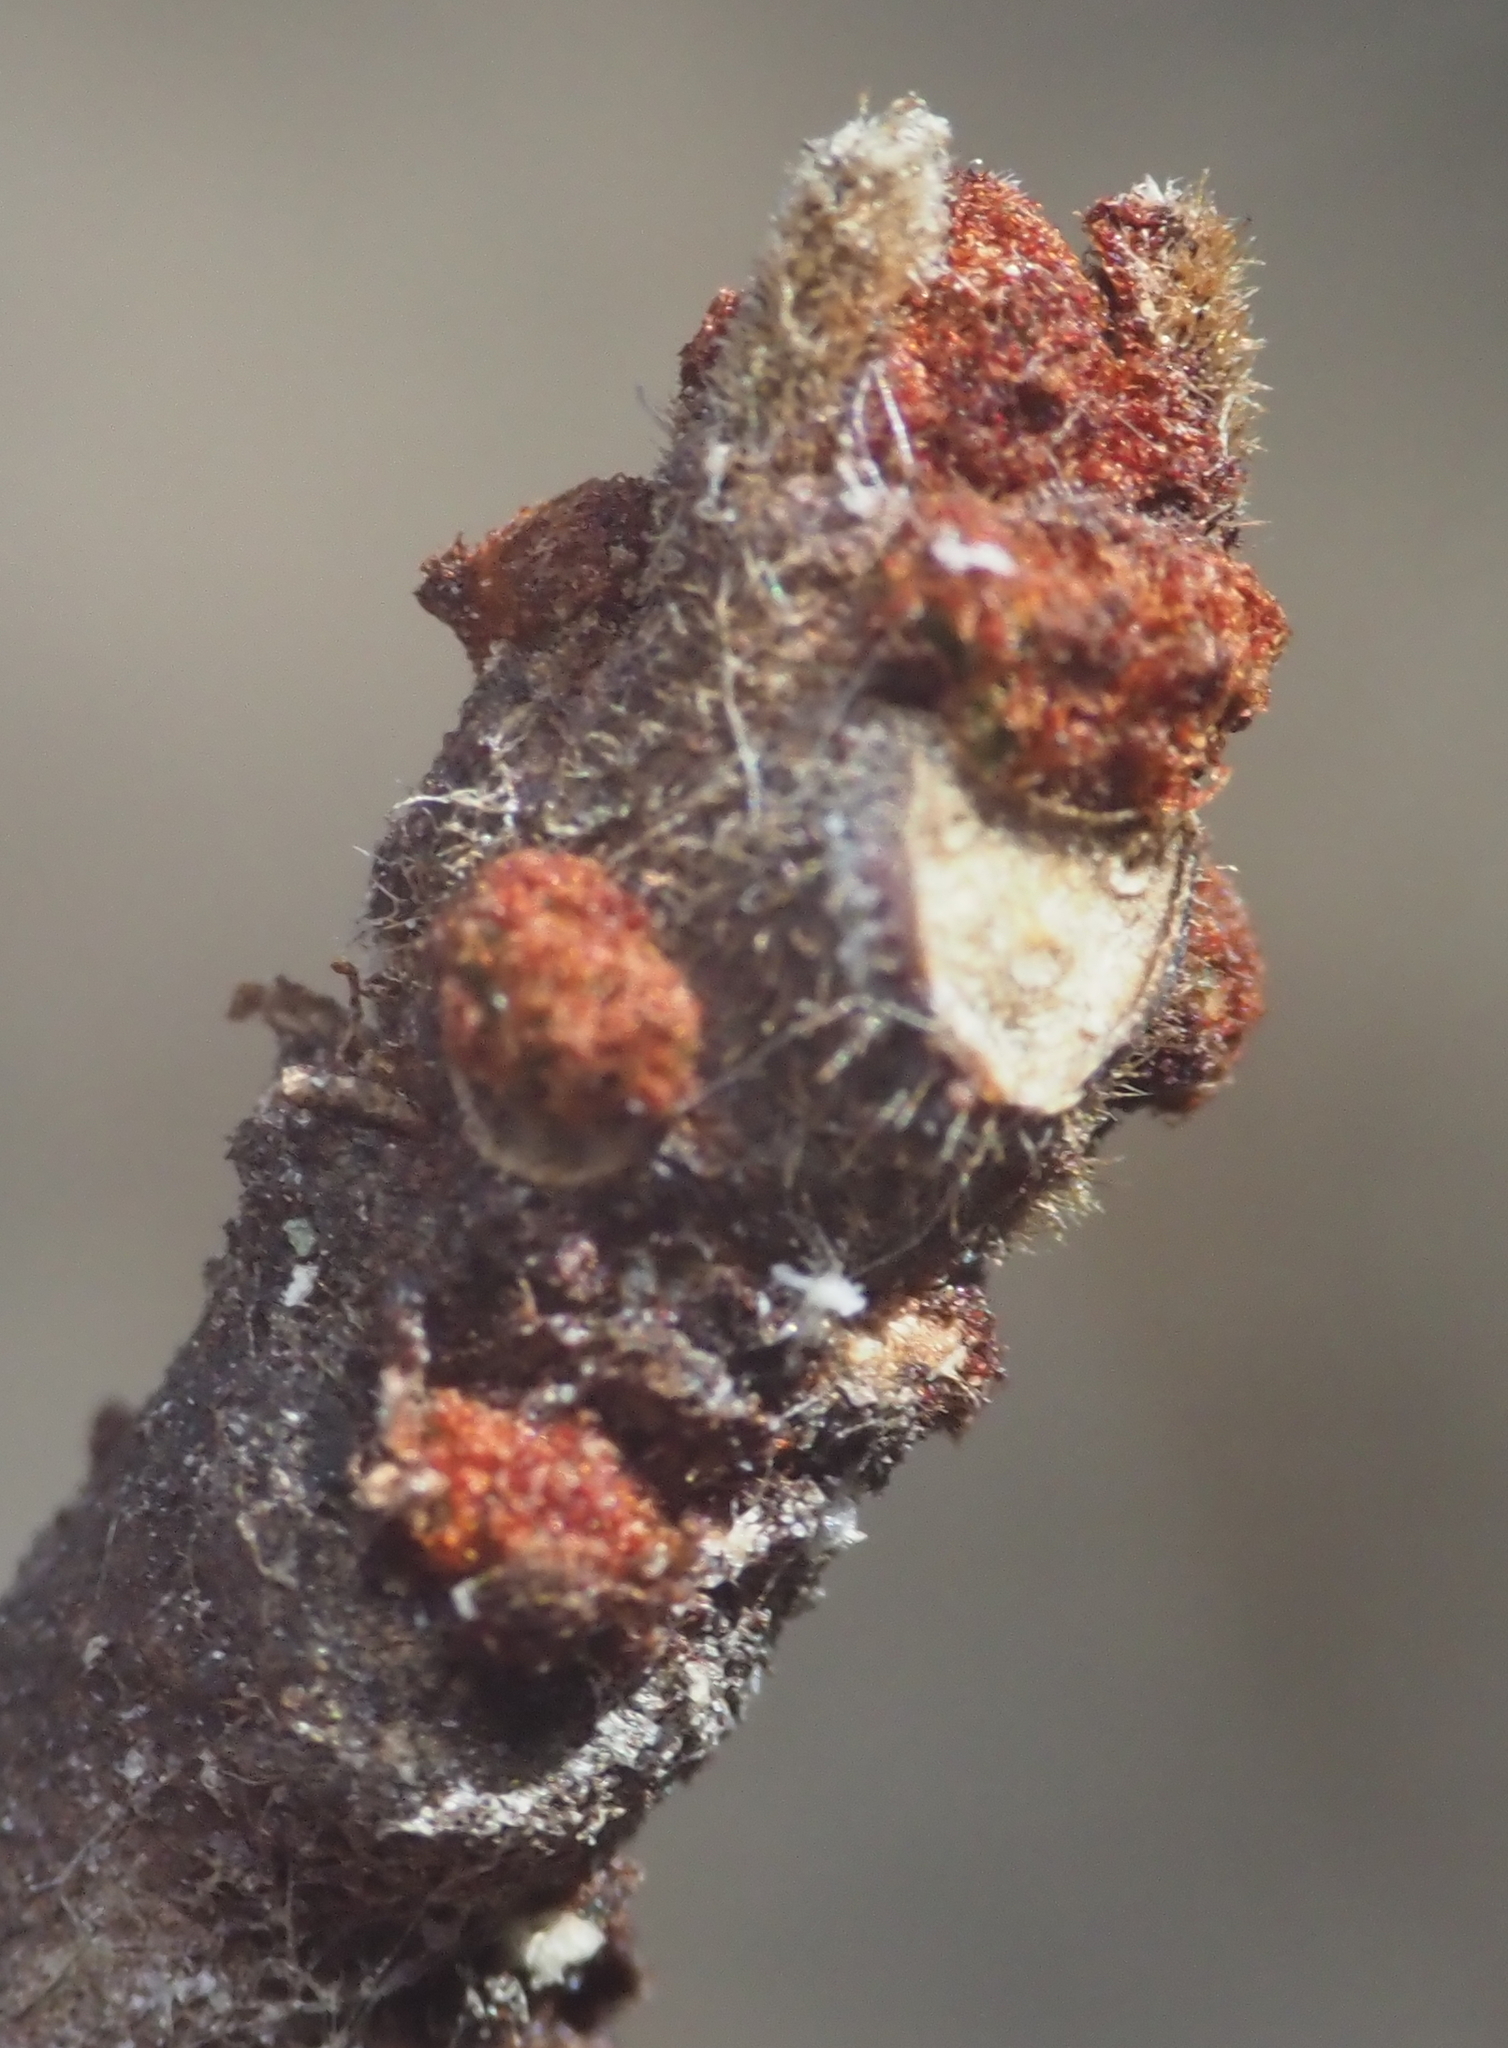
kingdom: Plantae
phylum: Tracheophyta
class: Magnoliopsida
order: Sapindales
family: Rutaceae
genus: Zanthoxylum
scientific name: Zanthoxylum americanum
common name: Northern prickly-ash
